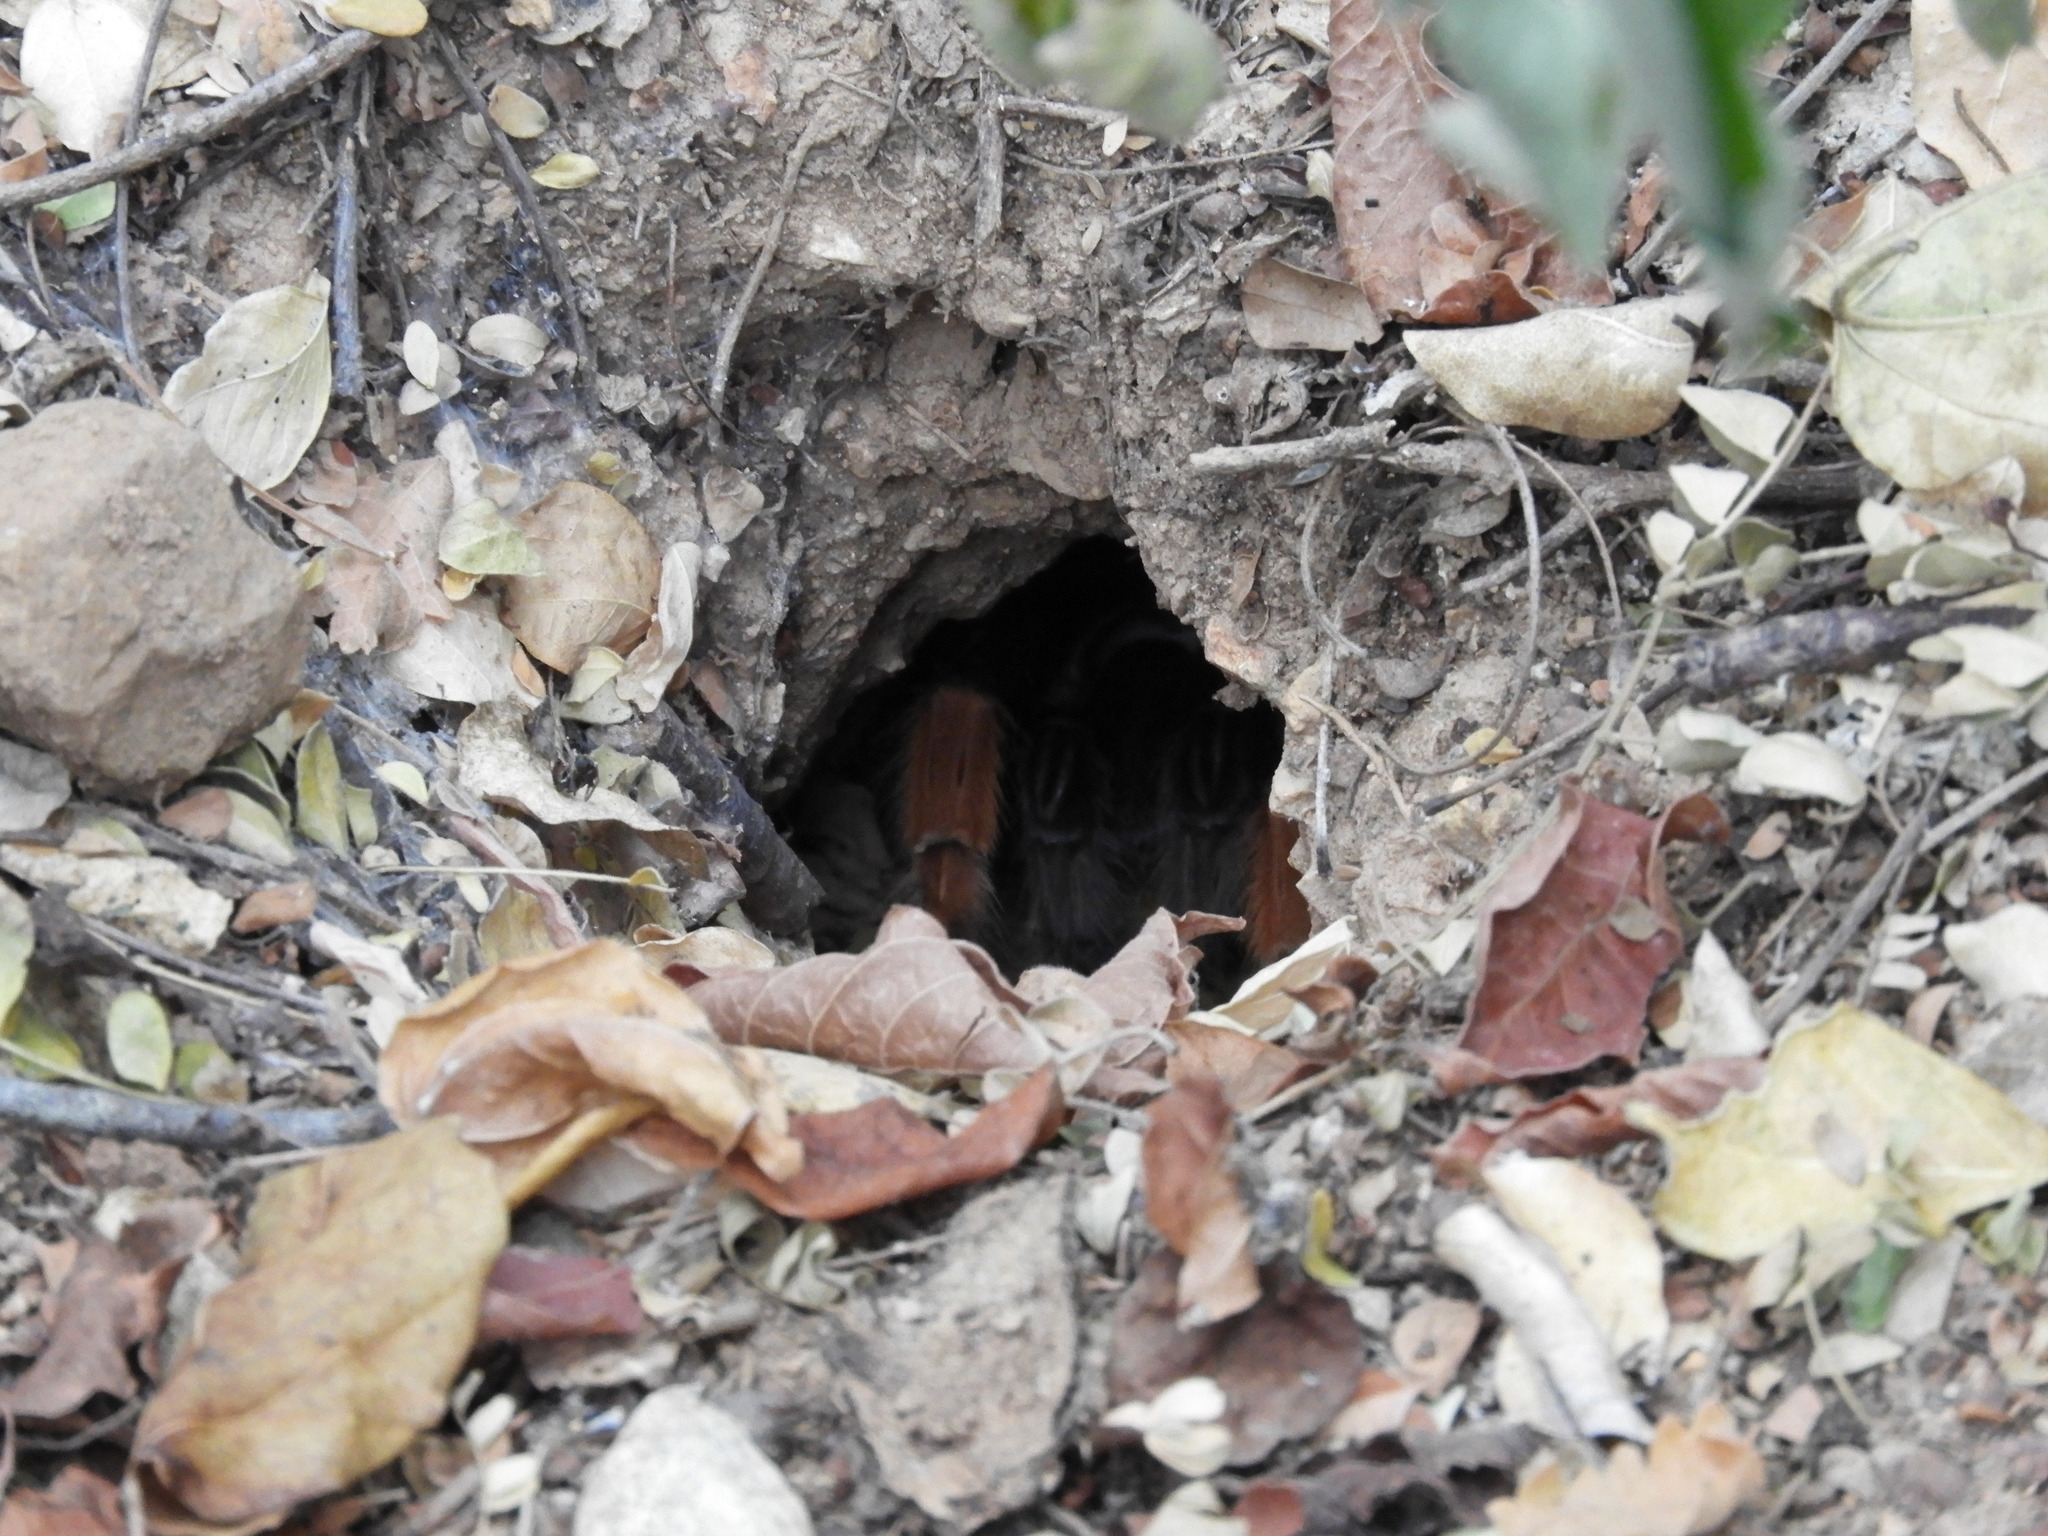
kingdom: Animalia
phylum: Arthropoda
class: Arachnida
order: Araneae
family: Theraphosidae
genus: Brachypelma
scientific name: Brachypelma emilia
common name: Mexican redleg
